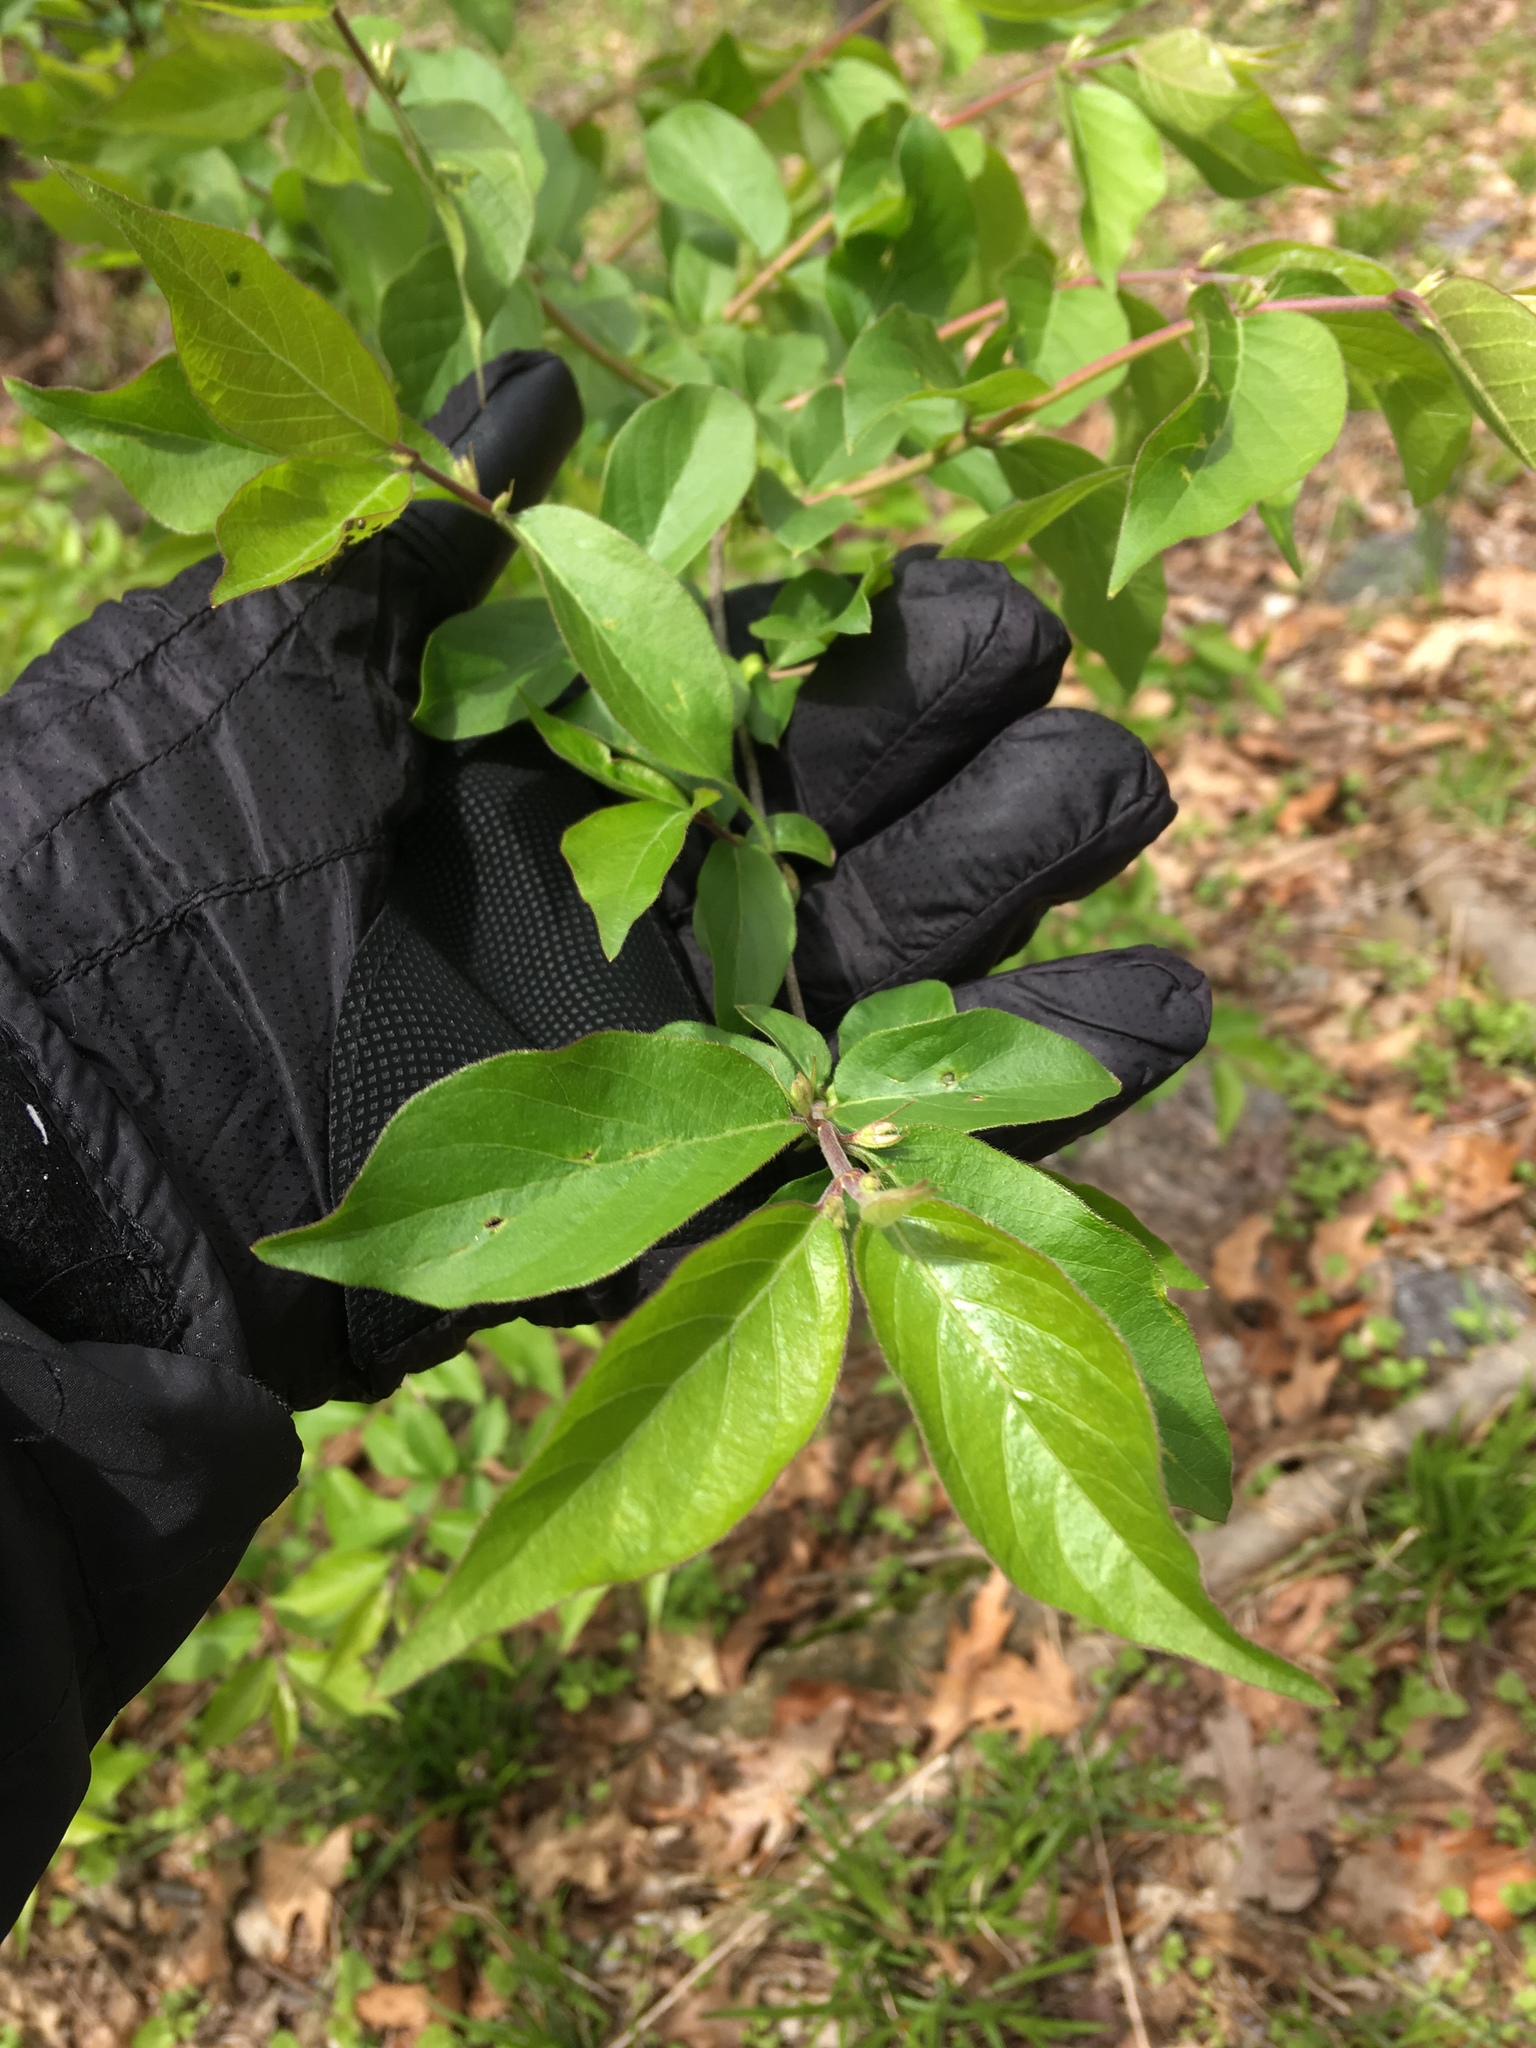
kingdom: Plantae
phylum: Tracheophyta
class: Magnoliopsida
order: Dipsacales
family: Caprifoliaceae
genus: Lonicera
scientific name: Lonicera maackii
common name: Amur honeysuckle
